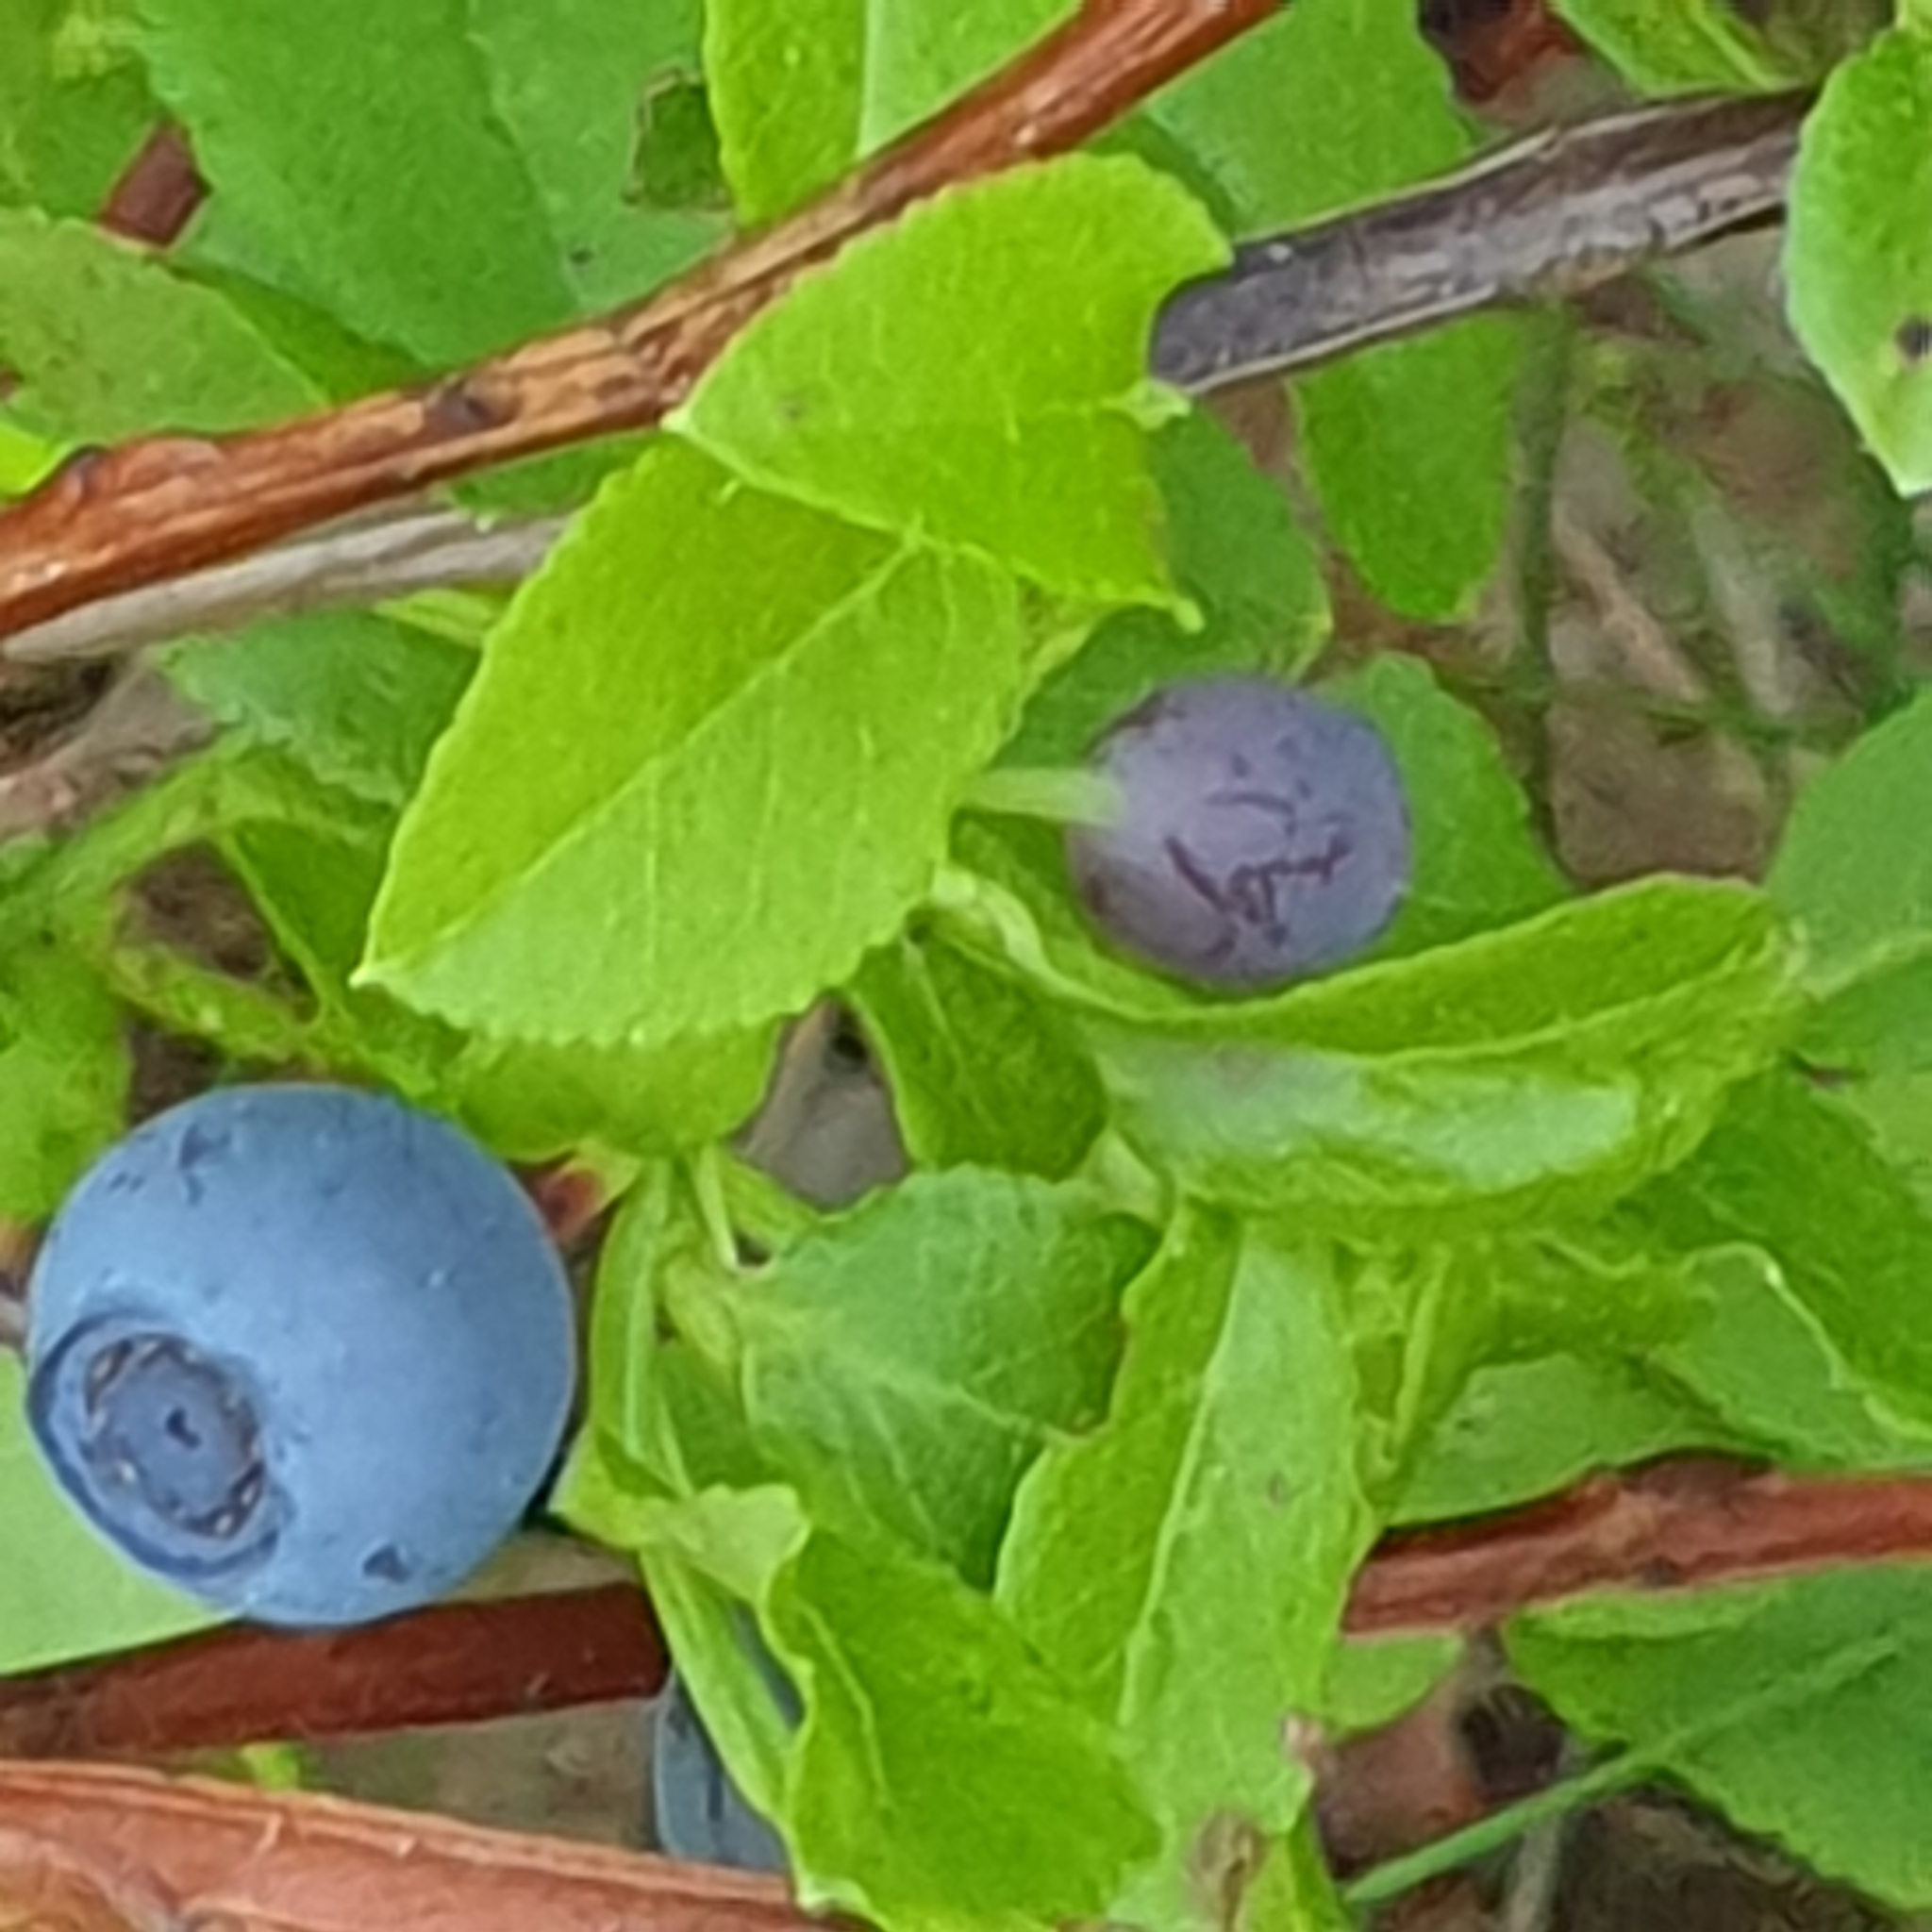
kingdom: Plantae
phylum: Tracheophyta
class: Magnoliopsida
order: Ericales
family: Ericaceae
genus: Vaccinium
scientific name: Vaccinium myrtillus
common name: Bilberry
